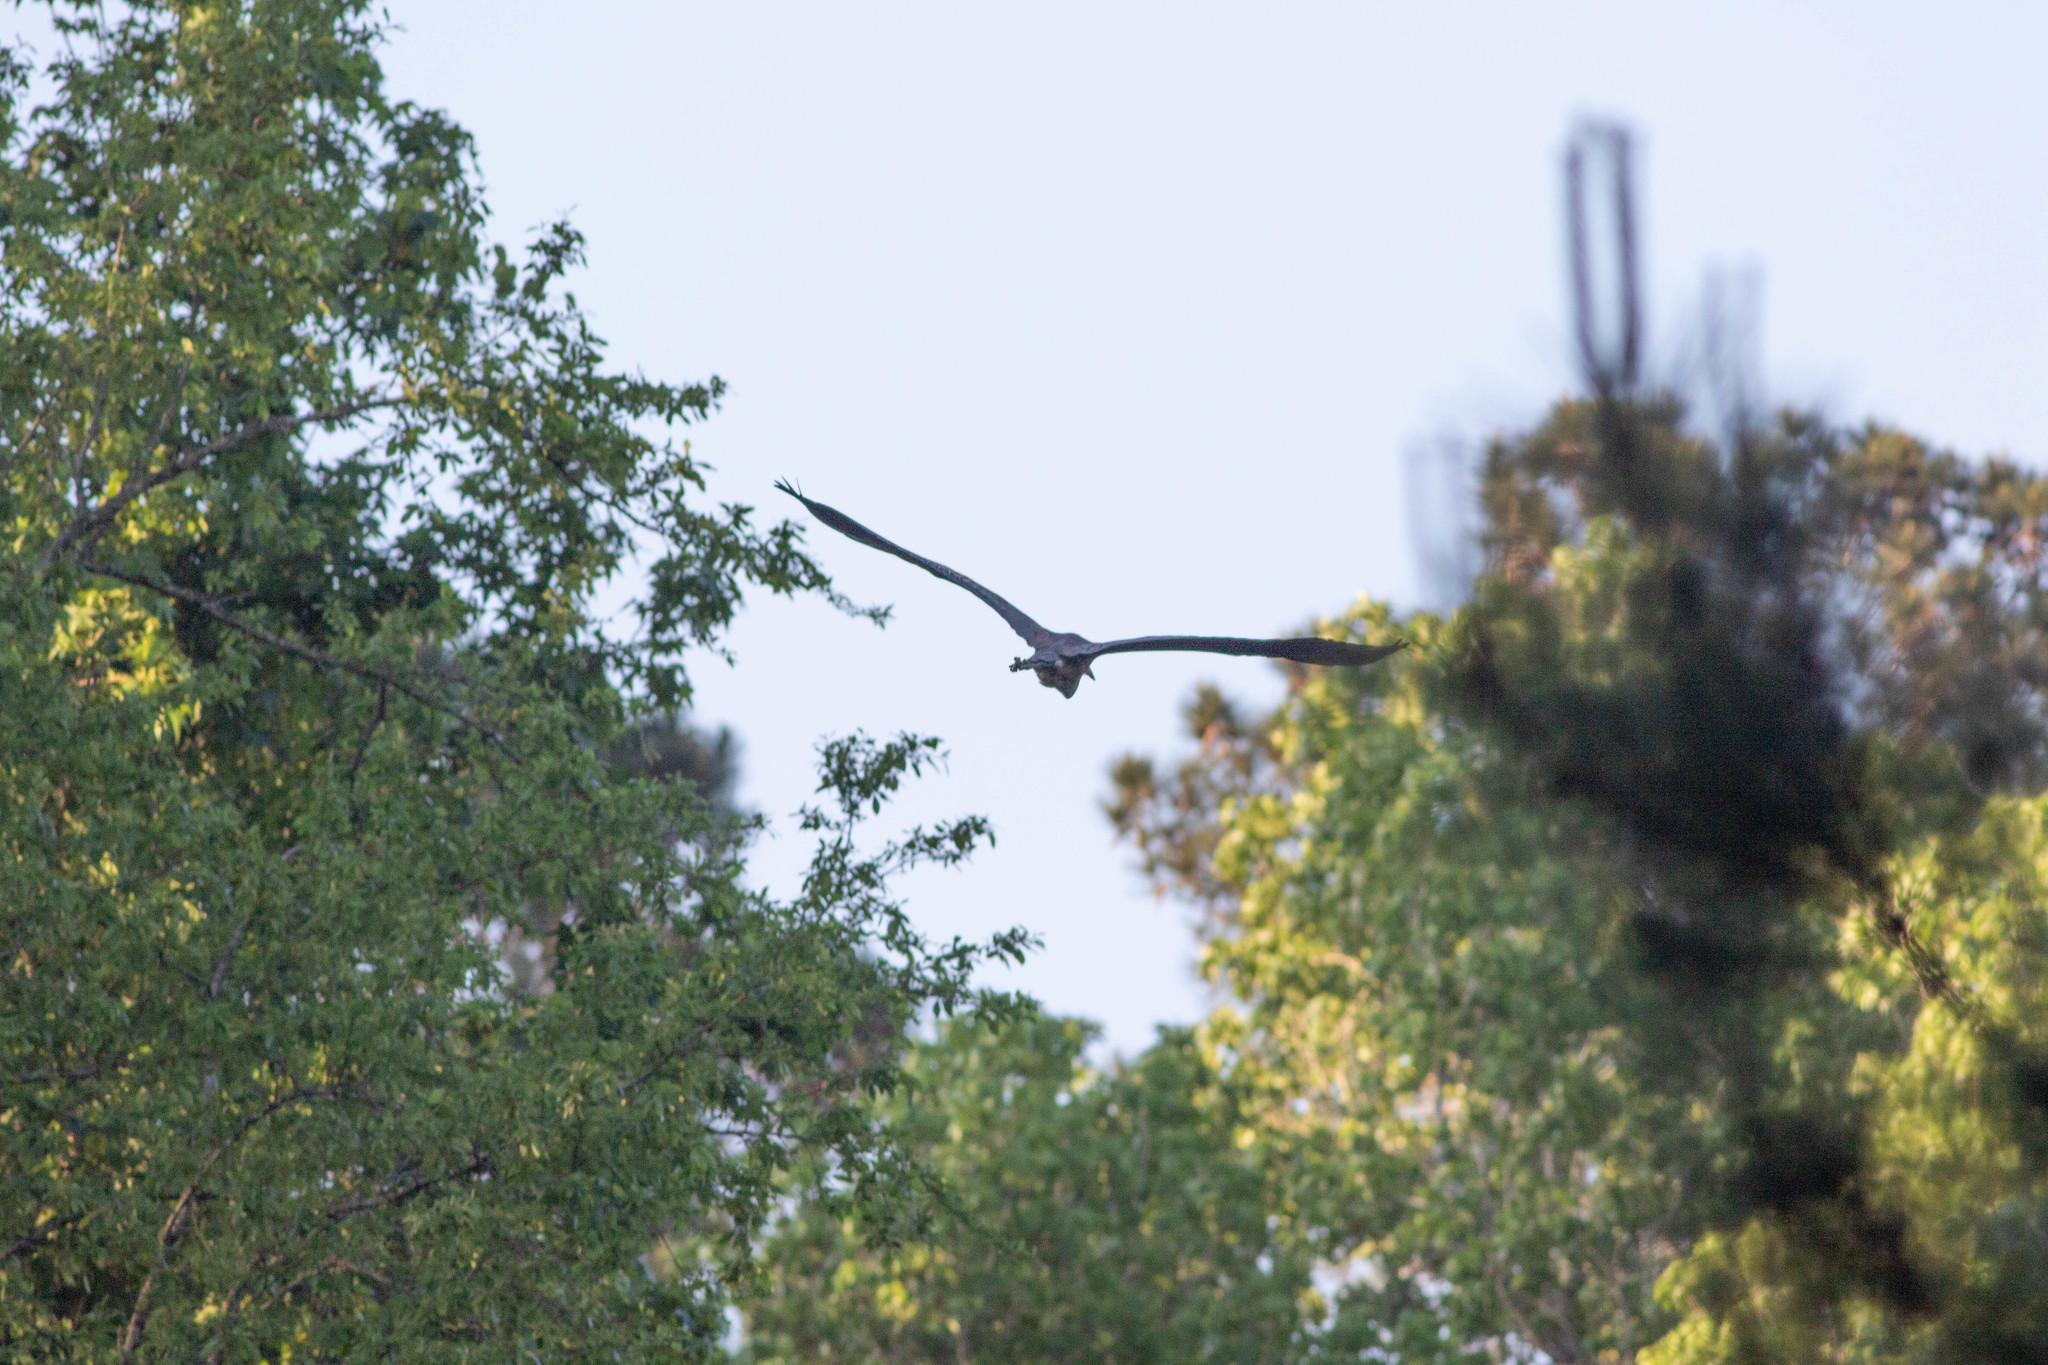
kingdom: Animalia
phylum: Chordata
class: Aves
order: Pelecaniformes
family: Ardeidae
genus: Ardea
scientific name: Ardea herodias
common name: Great blue heron
